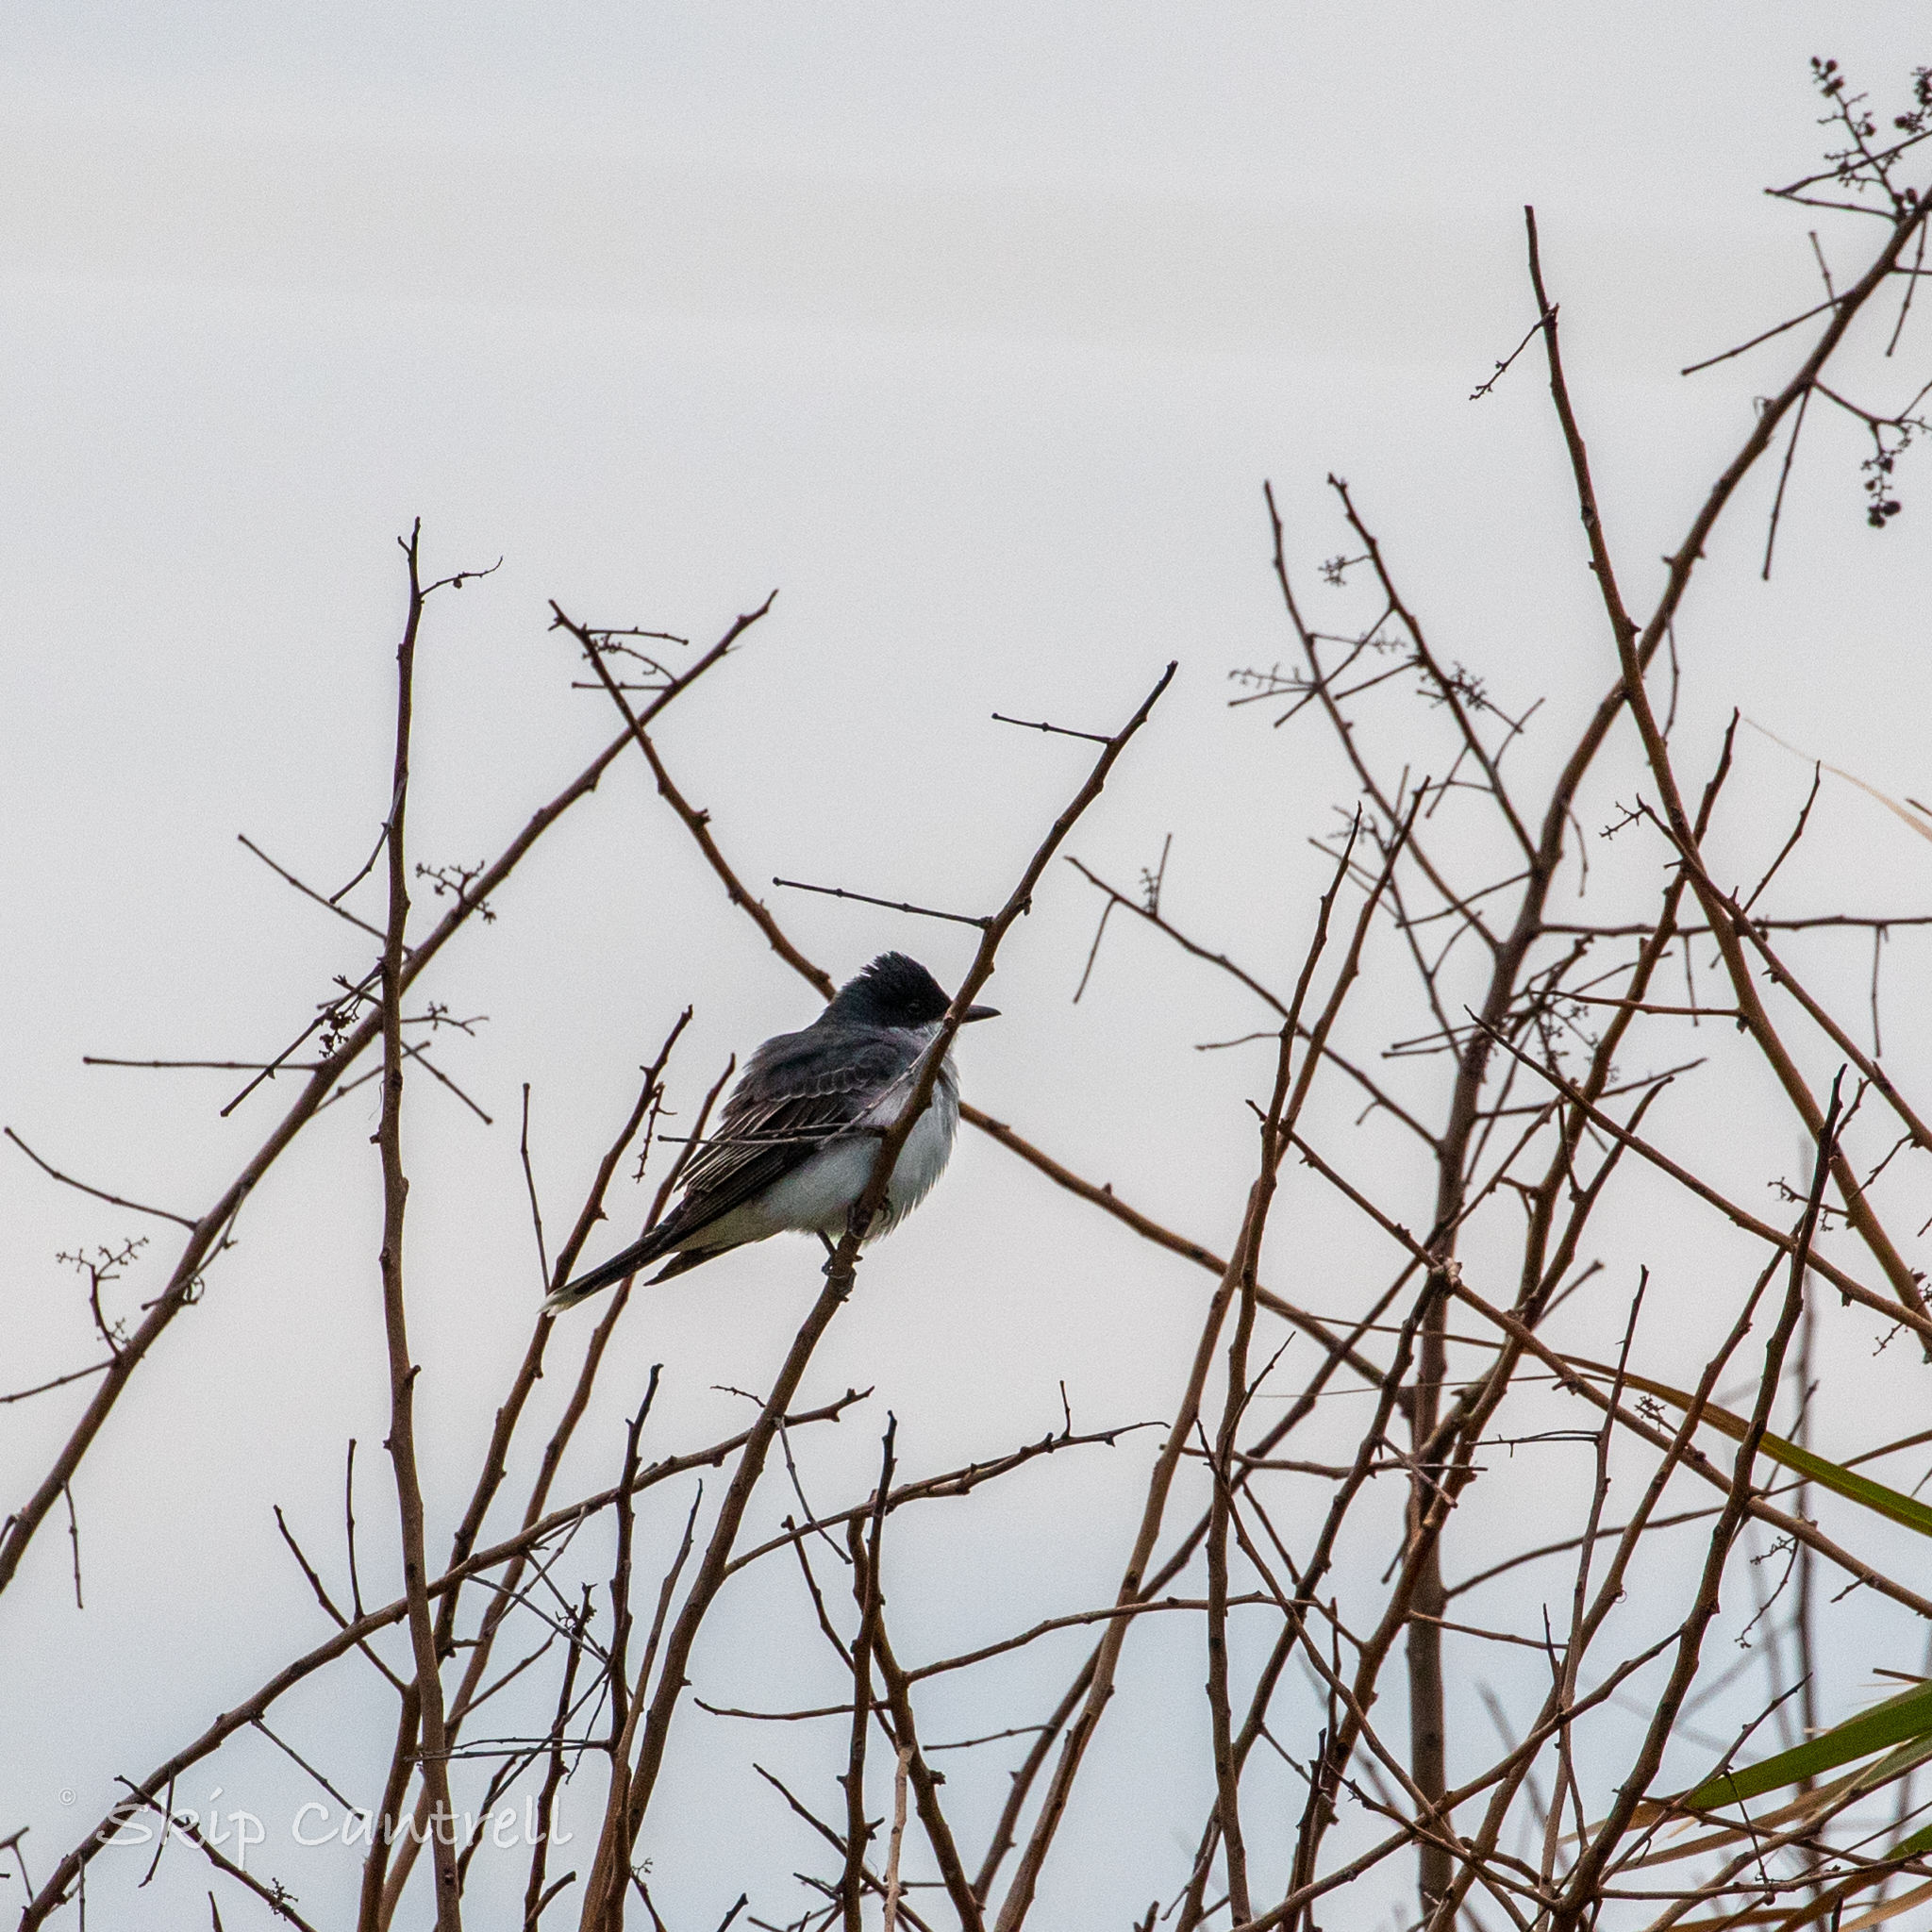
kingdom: Animalia
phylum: Chordata
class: Aves
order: Passeriformes
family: Tyrannidae
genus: Tyrannus
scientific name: Tyrannus tyrannus
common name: Eastern kingbird
